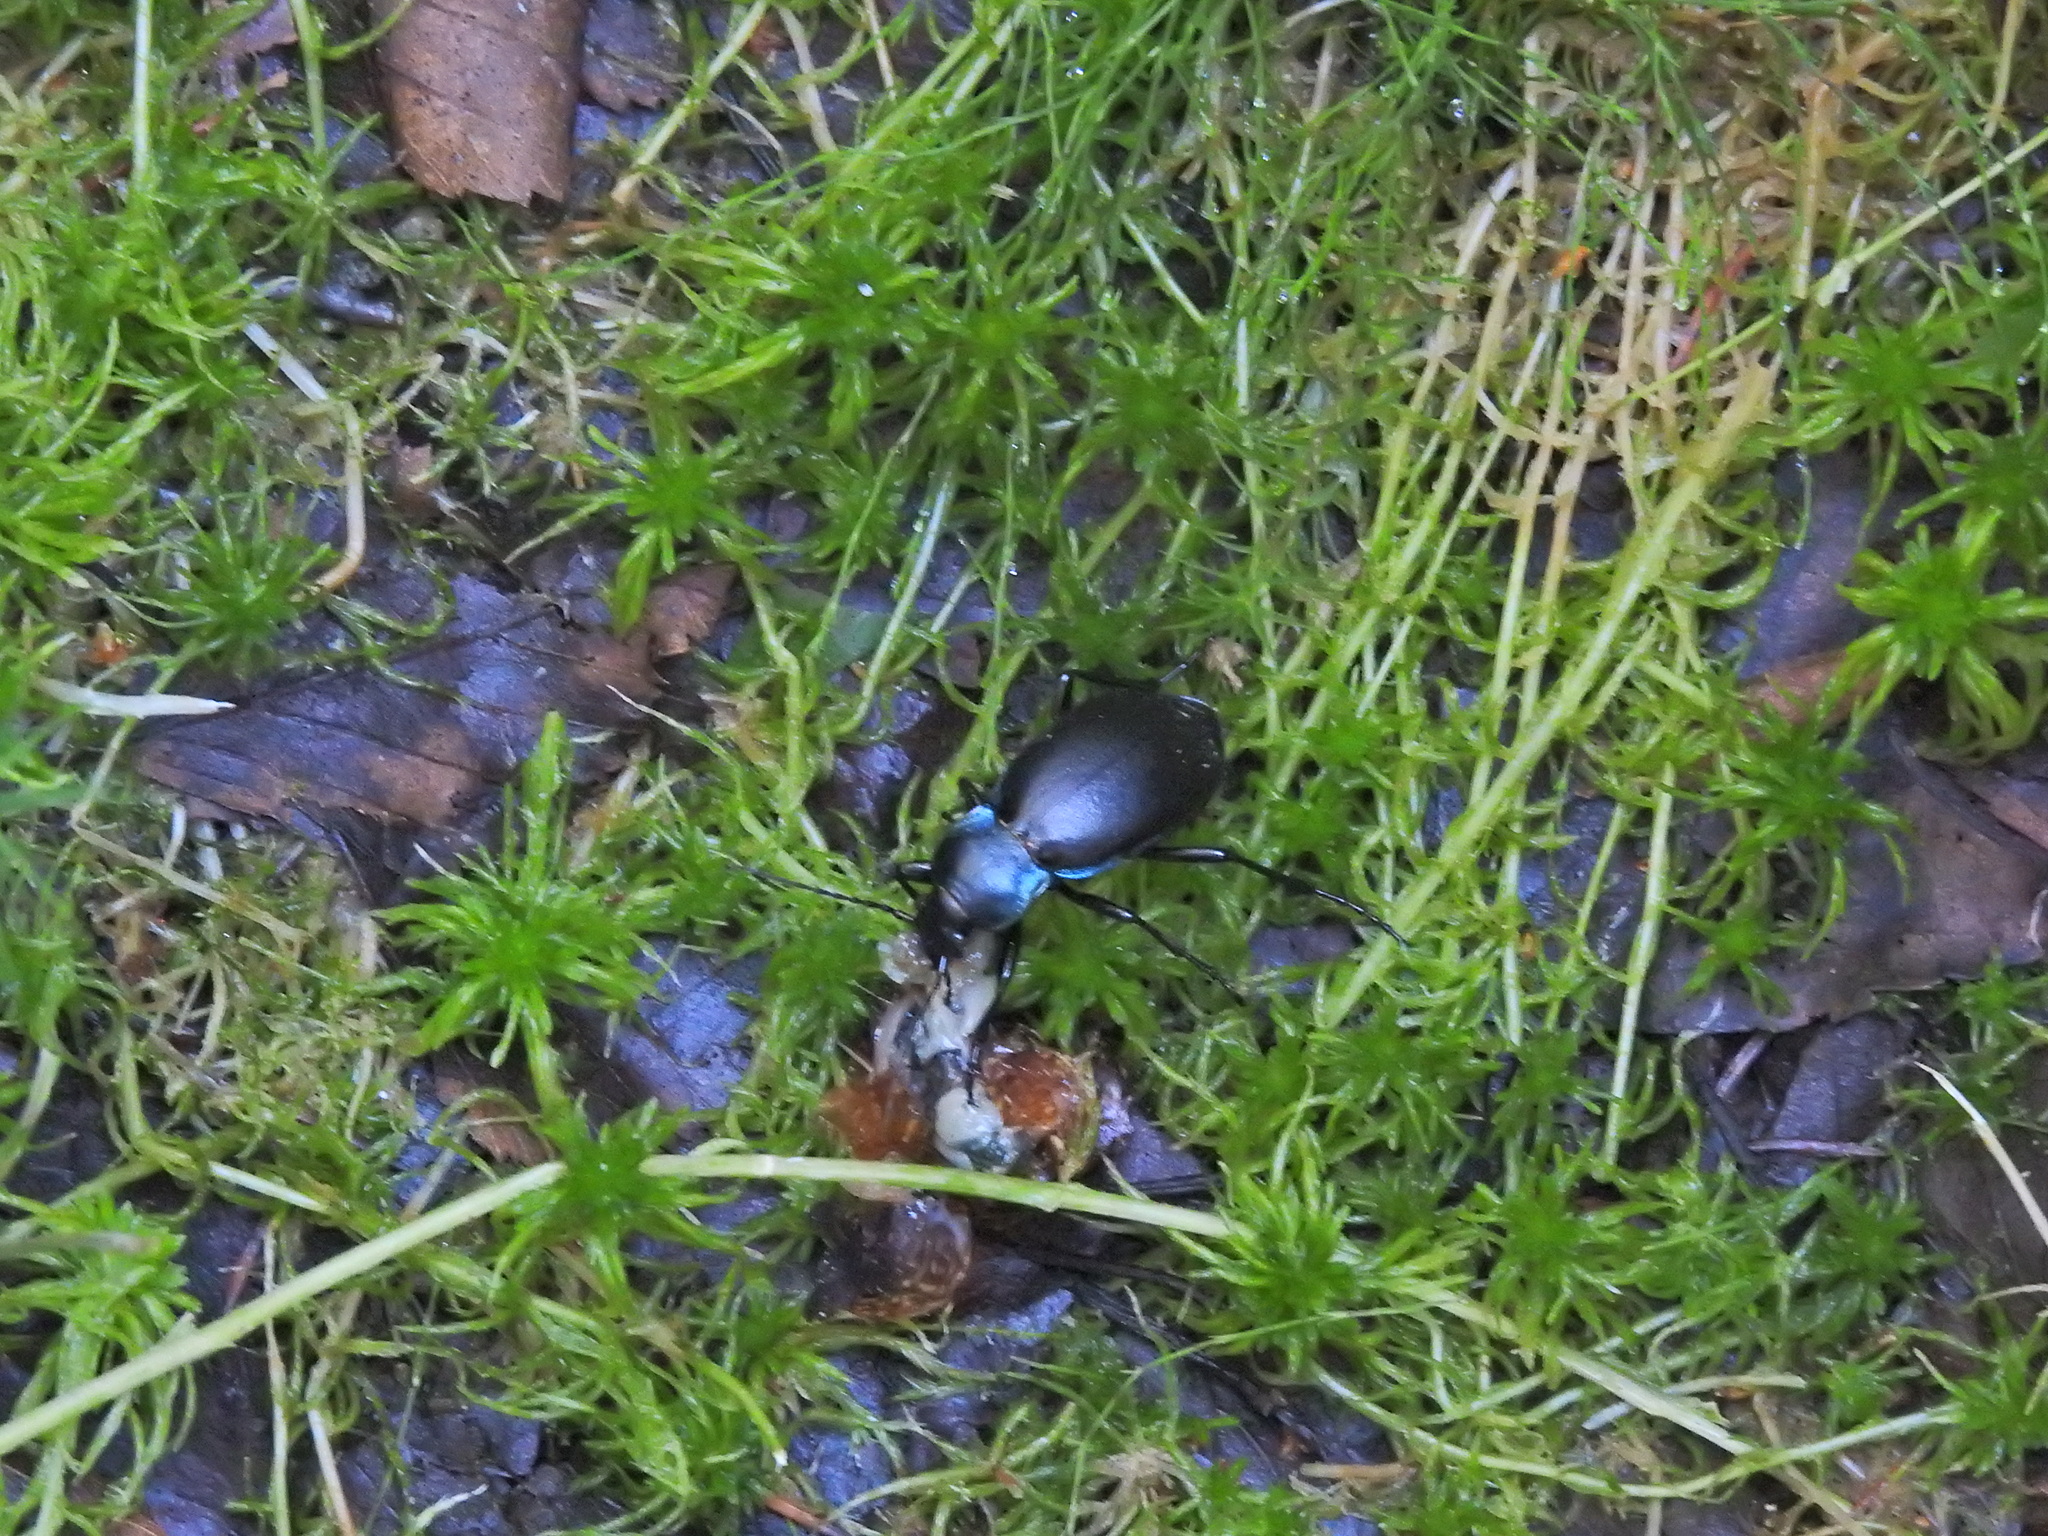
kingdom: Animalia
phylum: Arthropoda
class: Insecta
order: Coleoptera
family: Carabidae
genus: Carabus
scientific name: Carabus violaceus
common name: Violet ground beetle
